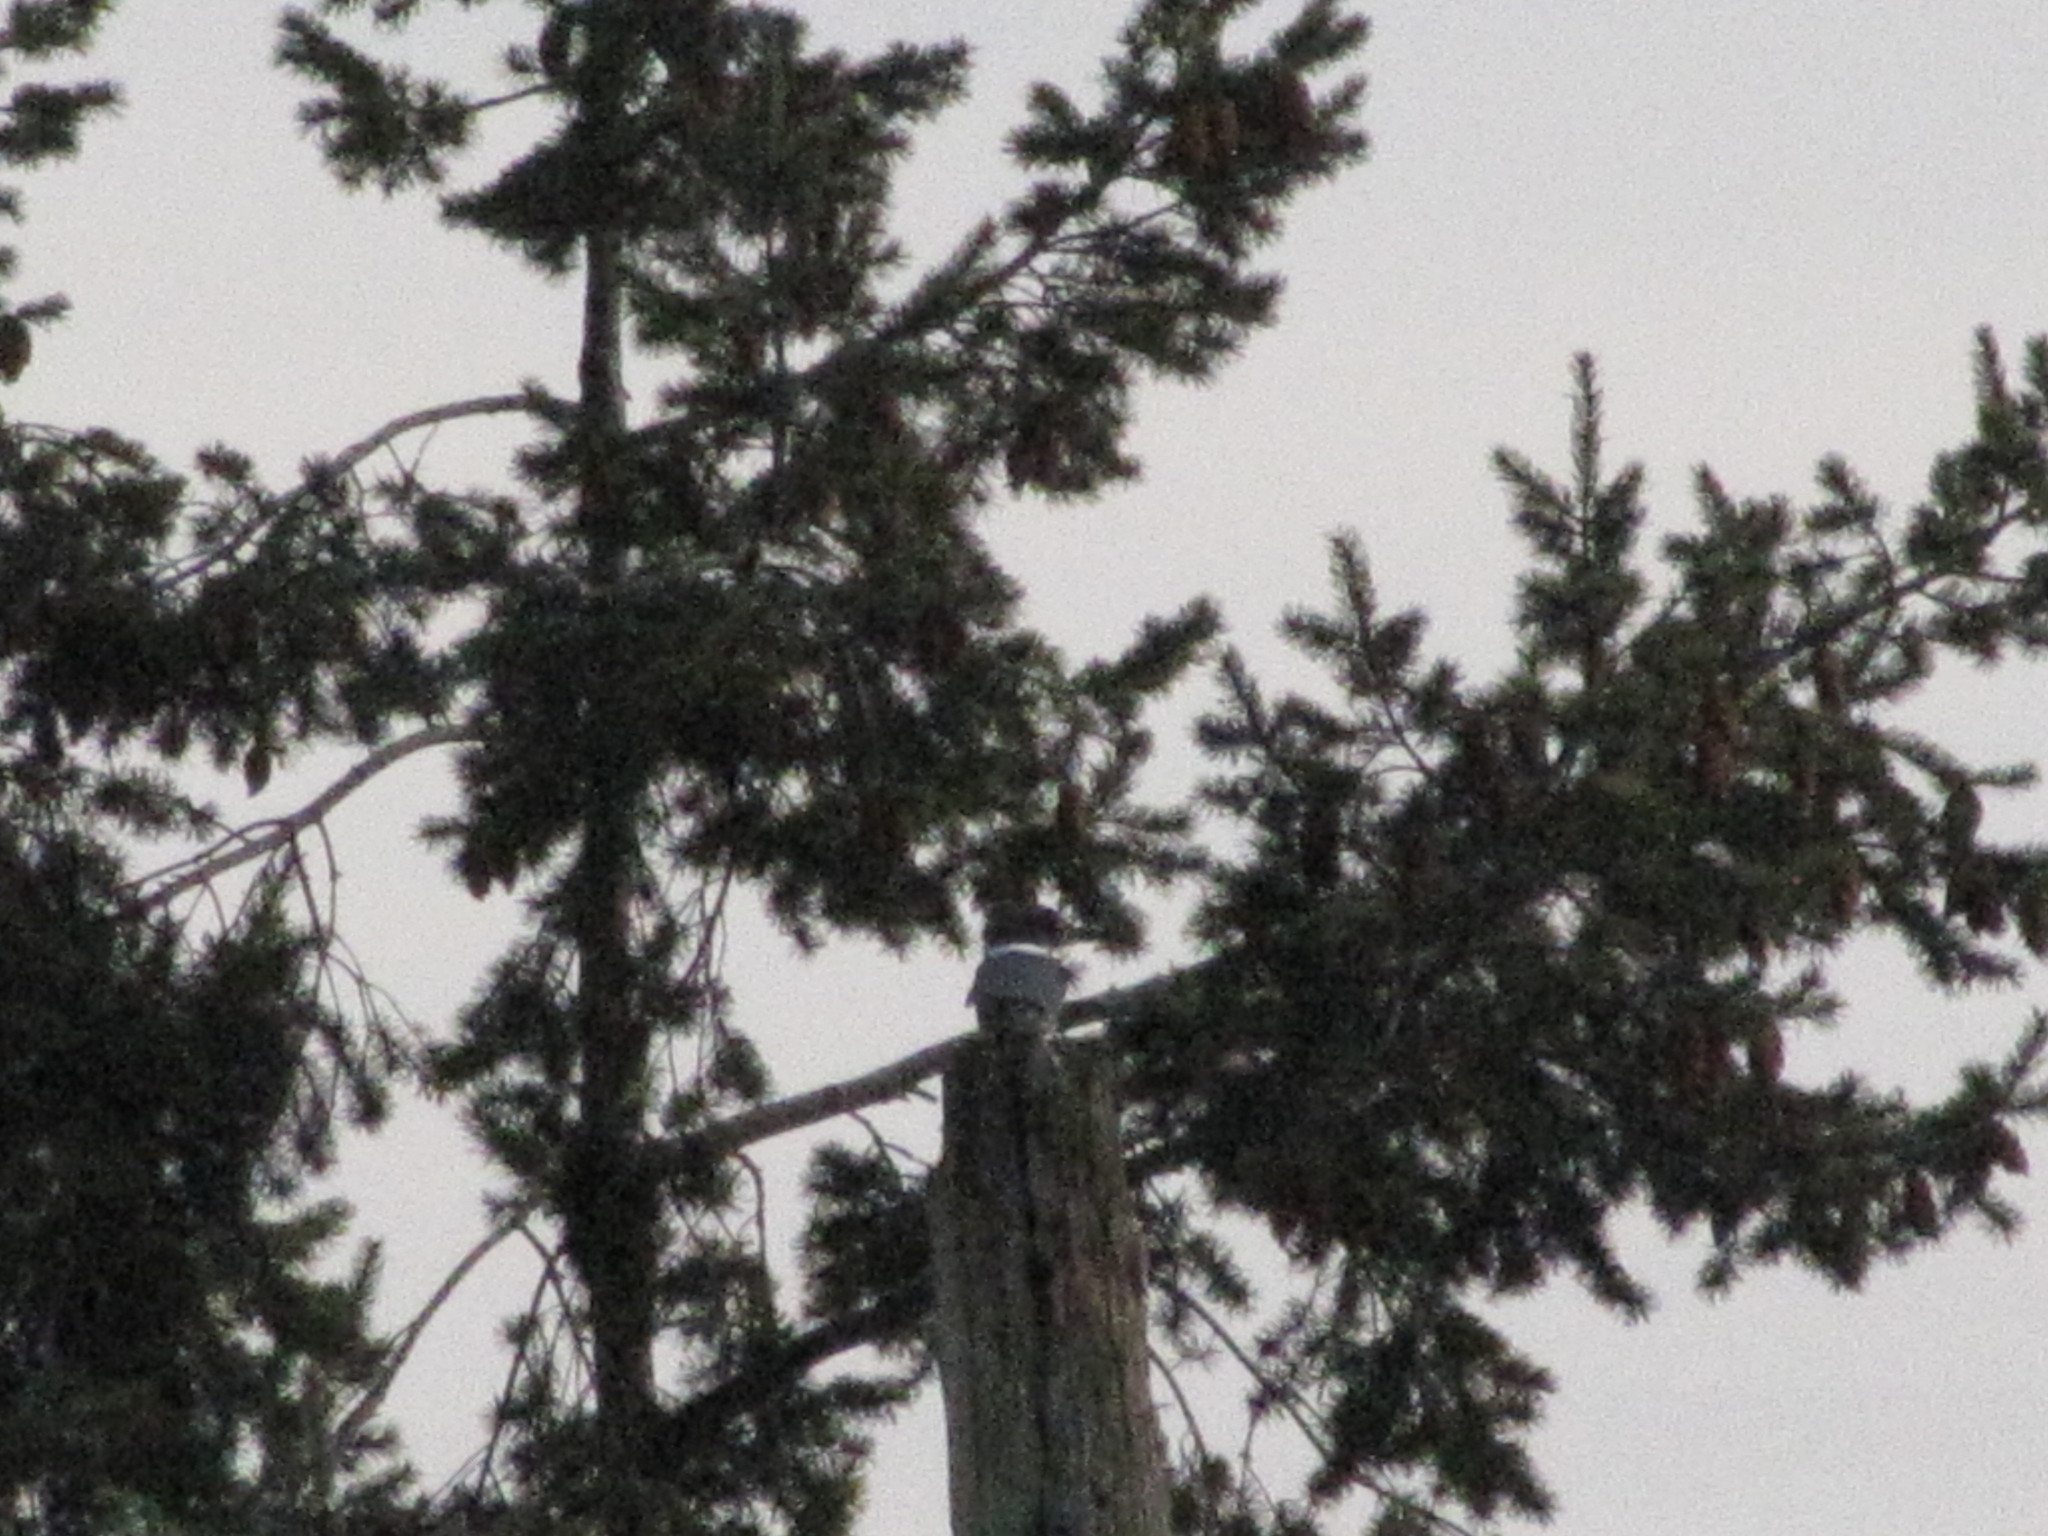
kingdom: Animalia
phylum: Chordata
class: Aves
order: Coraciiformes
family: Alcedinidae
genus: Megaceryle
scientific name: Megaceryle alcyon
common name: Belted kingfisher
